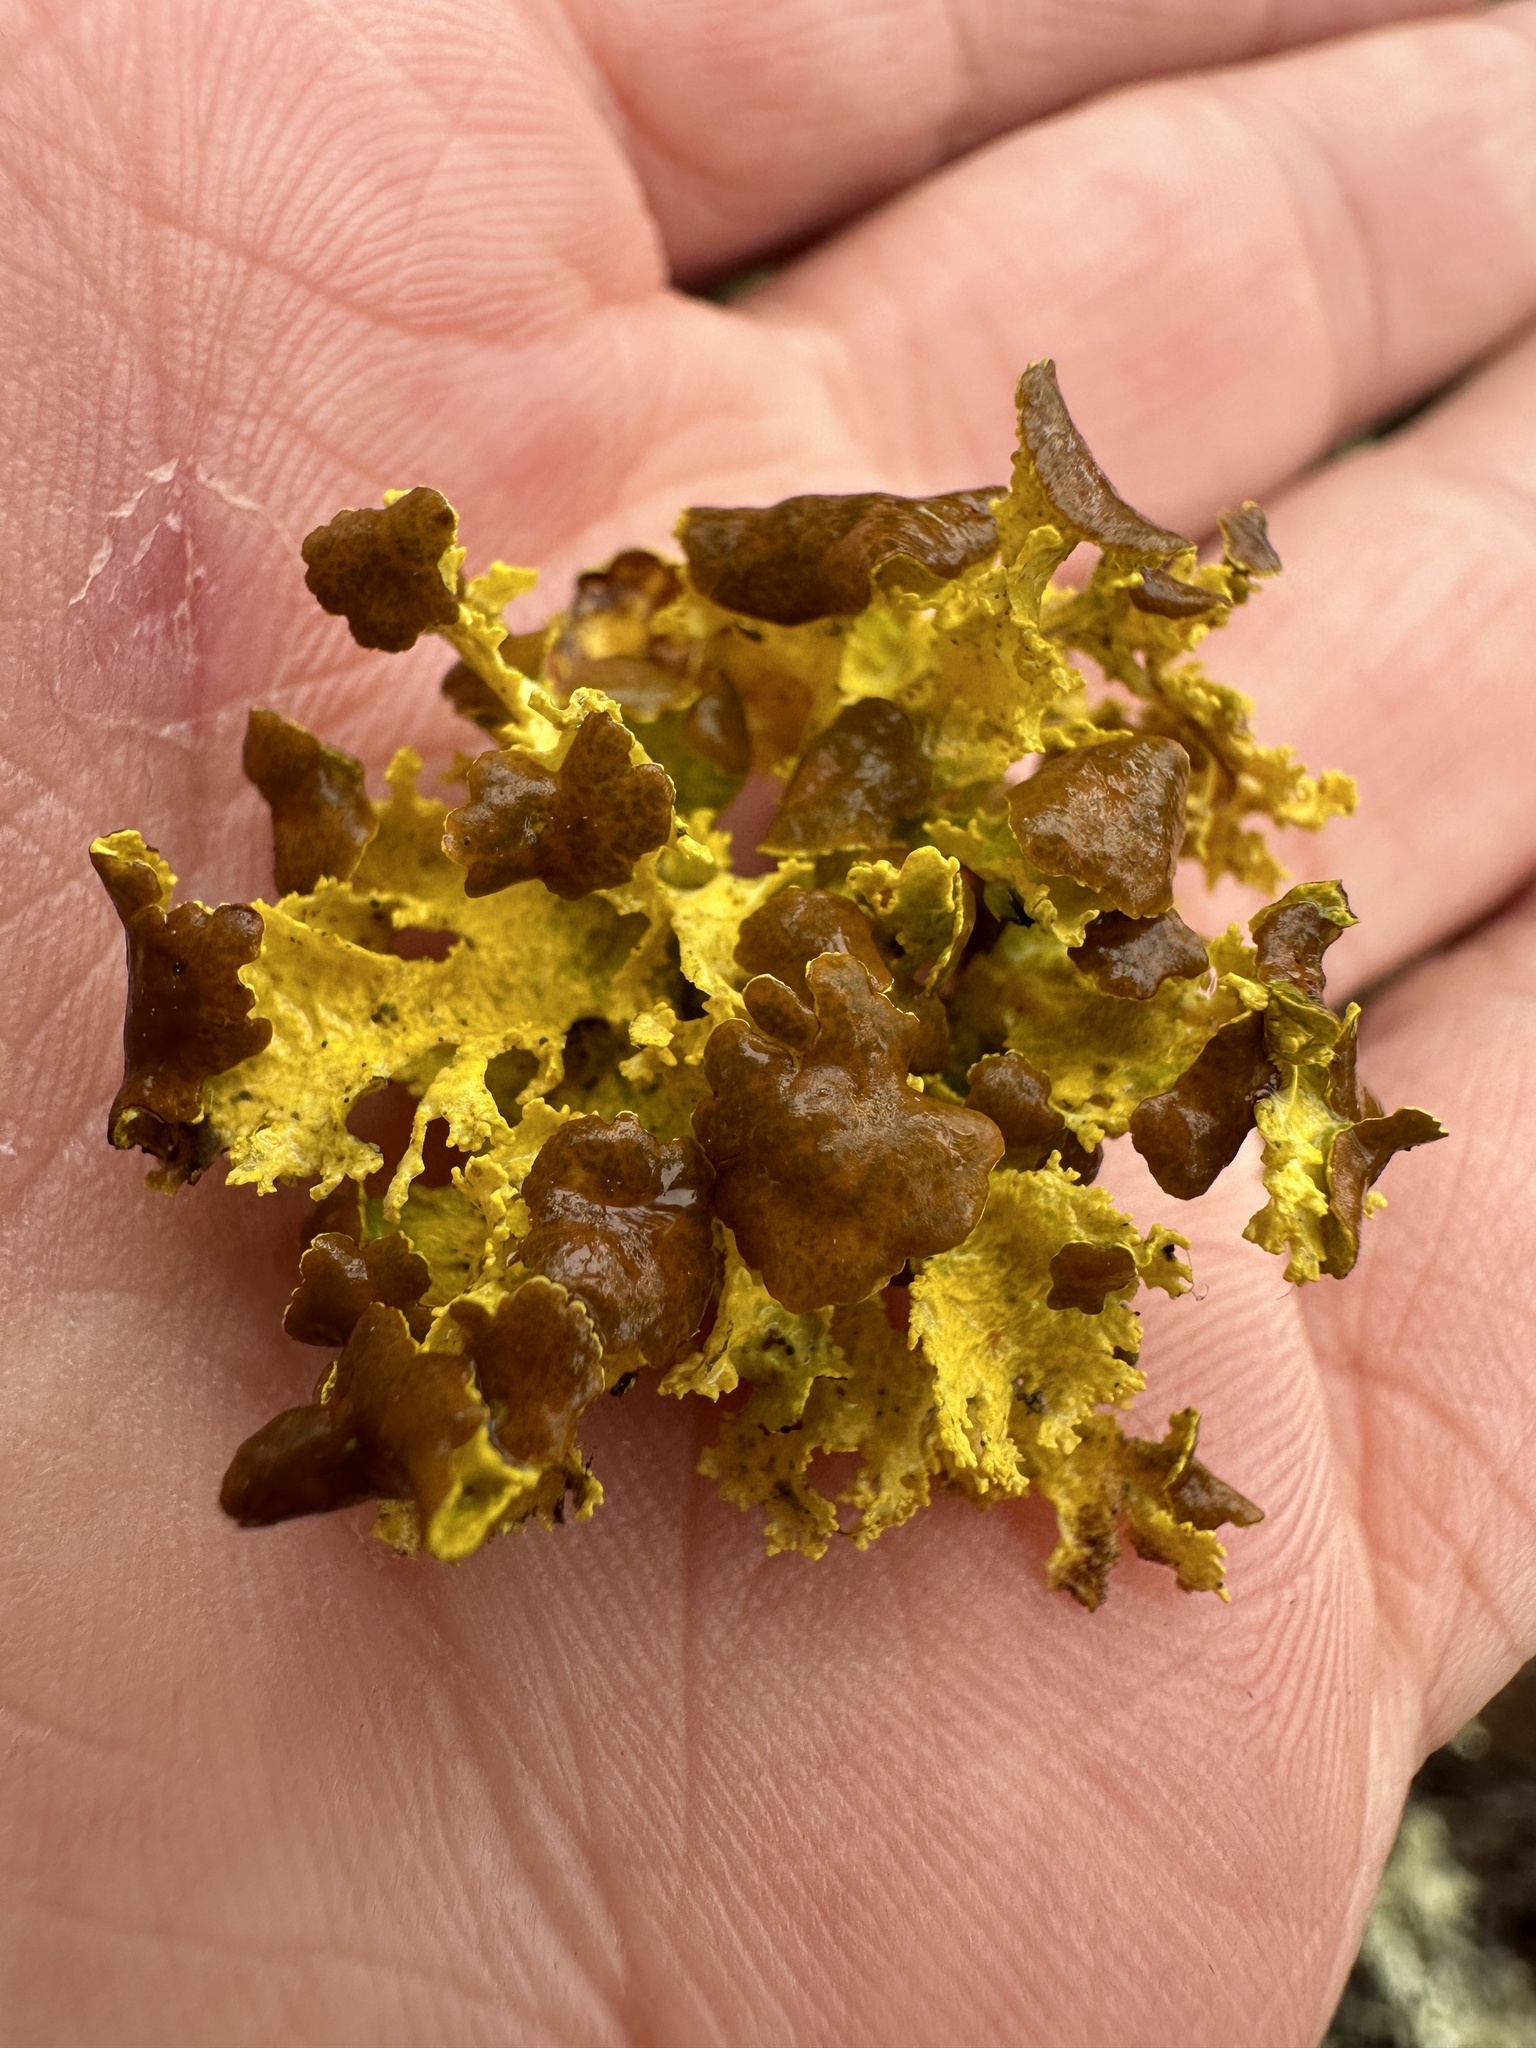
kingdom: Fungi
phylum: Ascomycota
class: Lecanoromycetes
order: Lecanorales
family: Parmeliaceae
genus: Vulpicida
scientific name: Vulpicida canadensis
